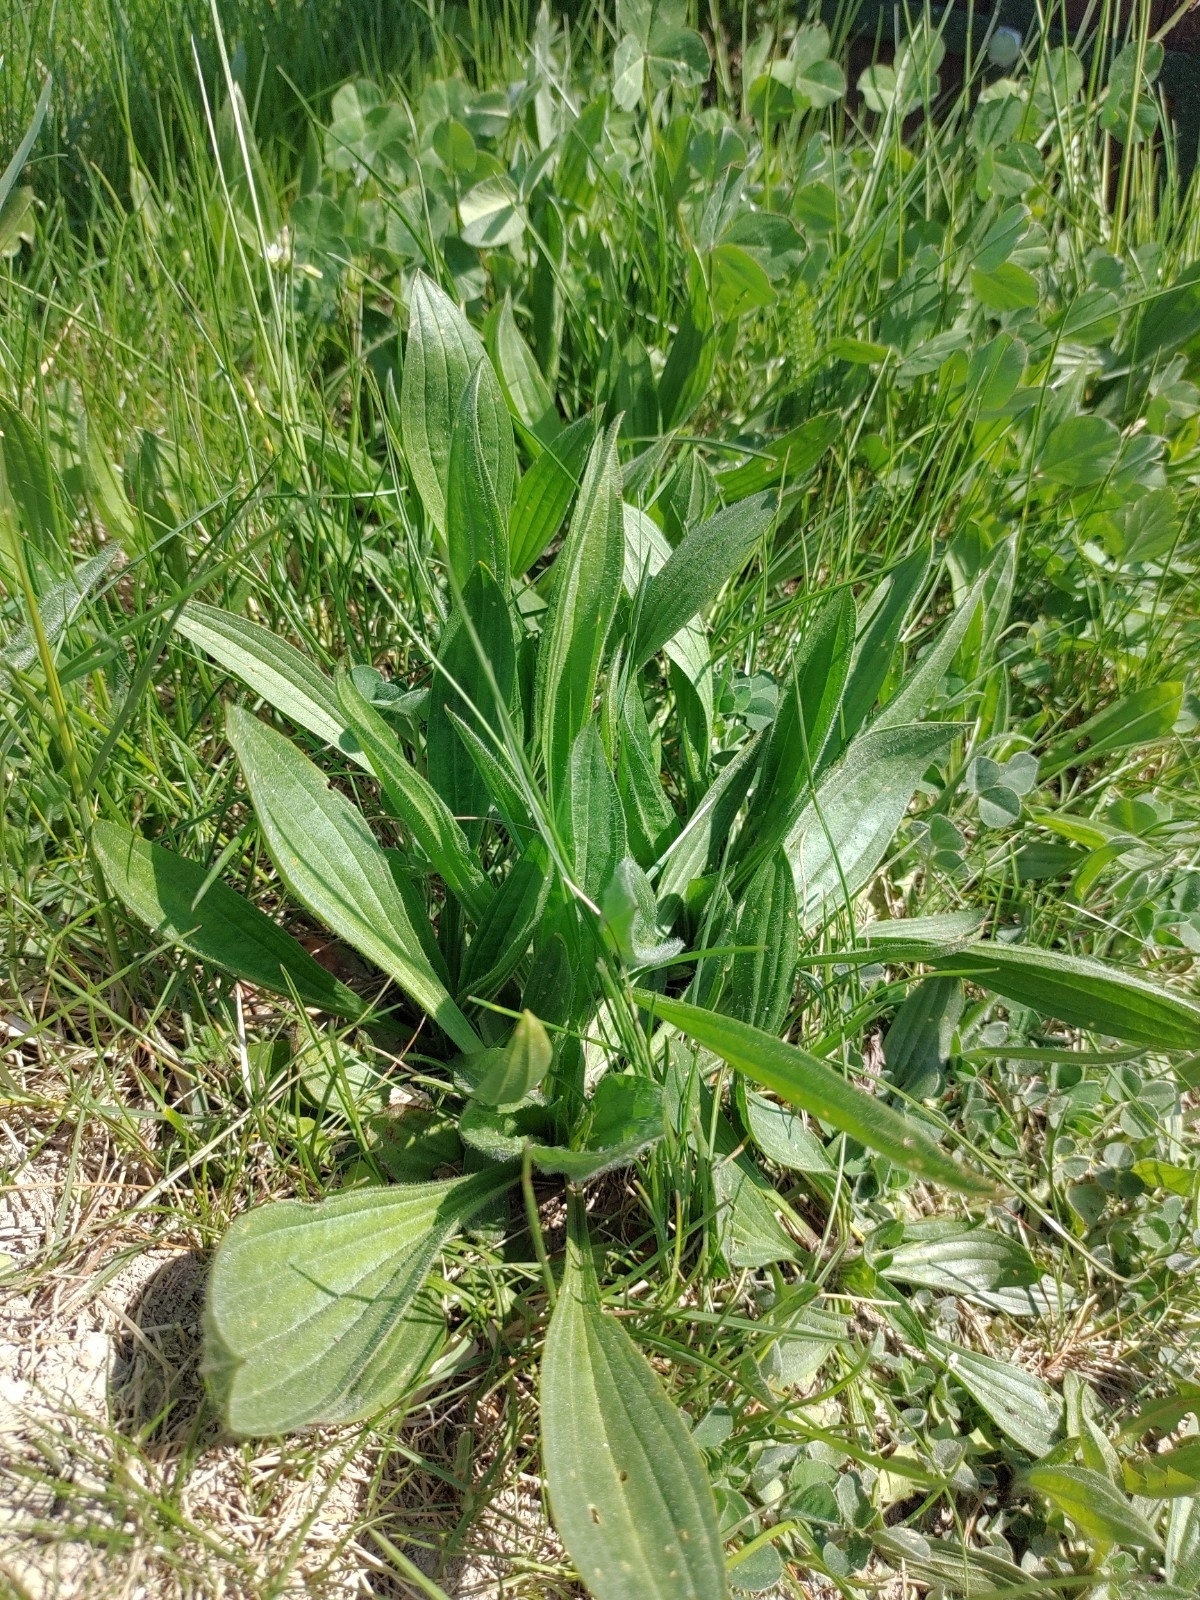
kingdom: Plantae
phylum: Tracheophyta
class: Magnoliopsida
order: Lamiales
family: Plantaginaceae
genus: Plantago
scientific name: Plantago lanceolata
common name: Ribwort plantain
